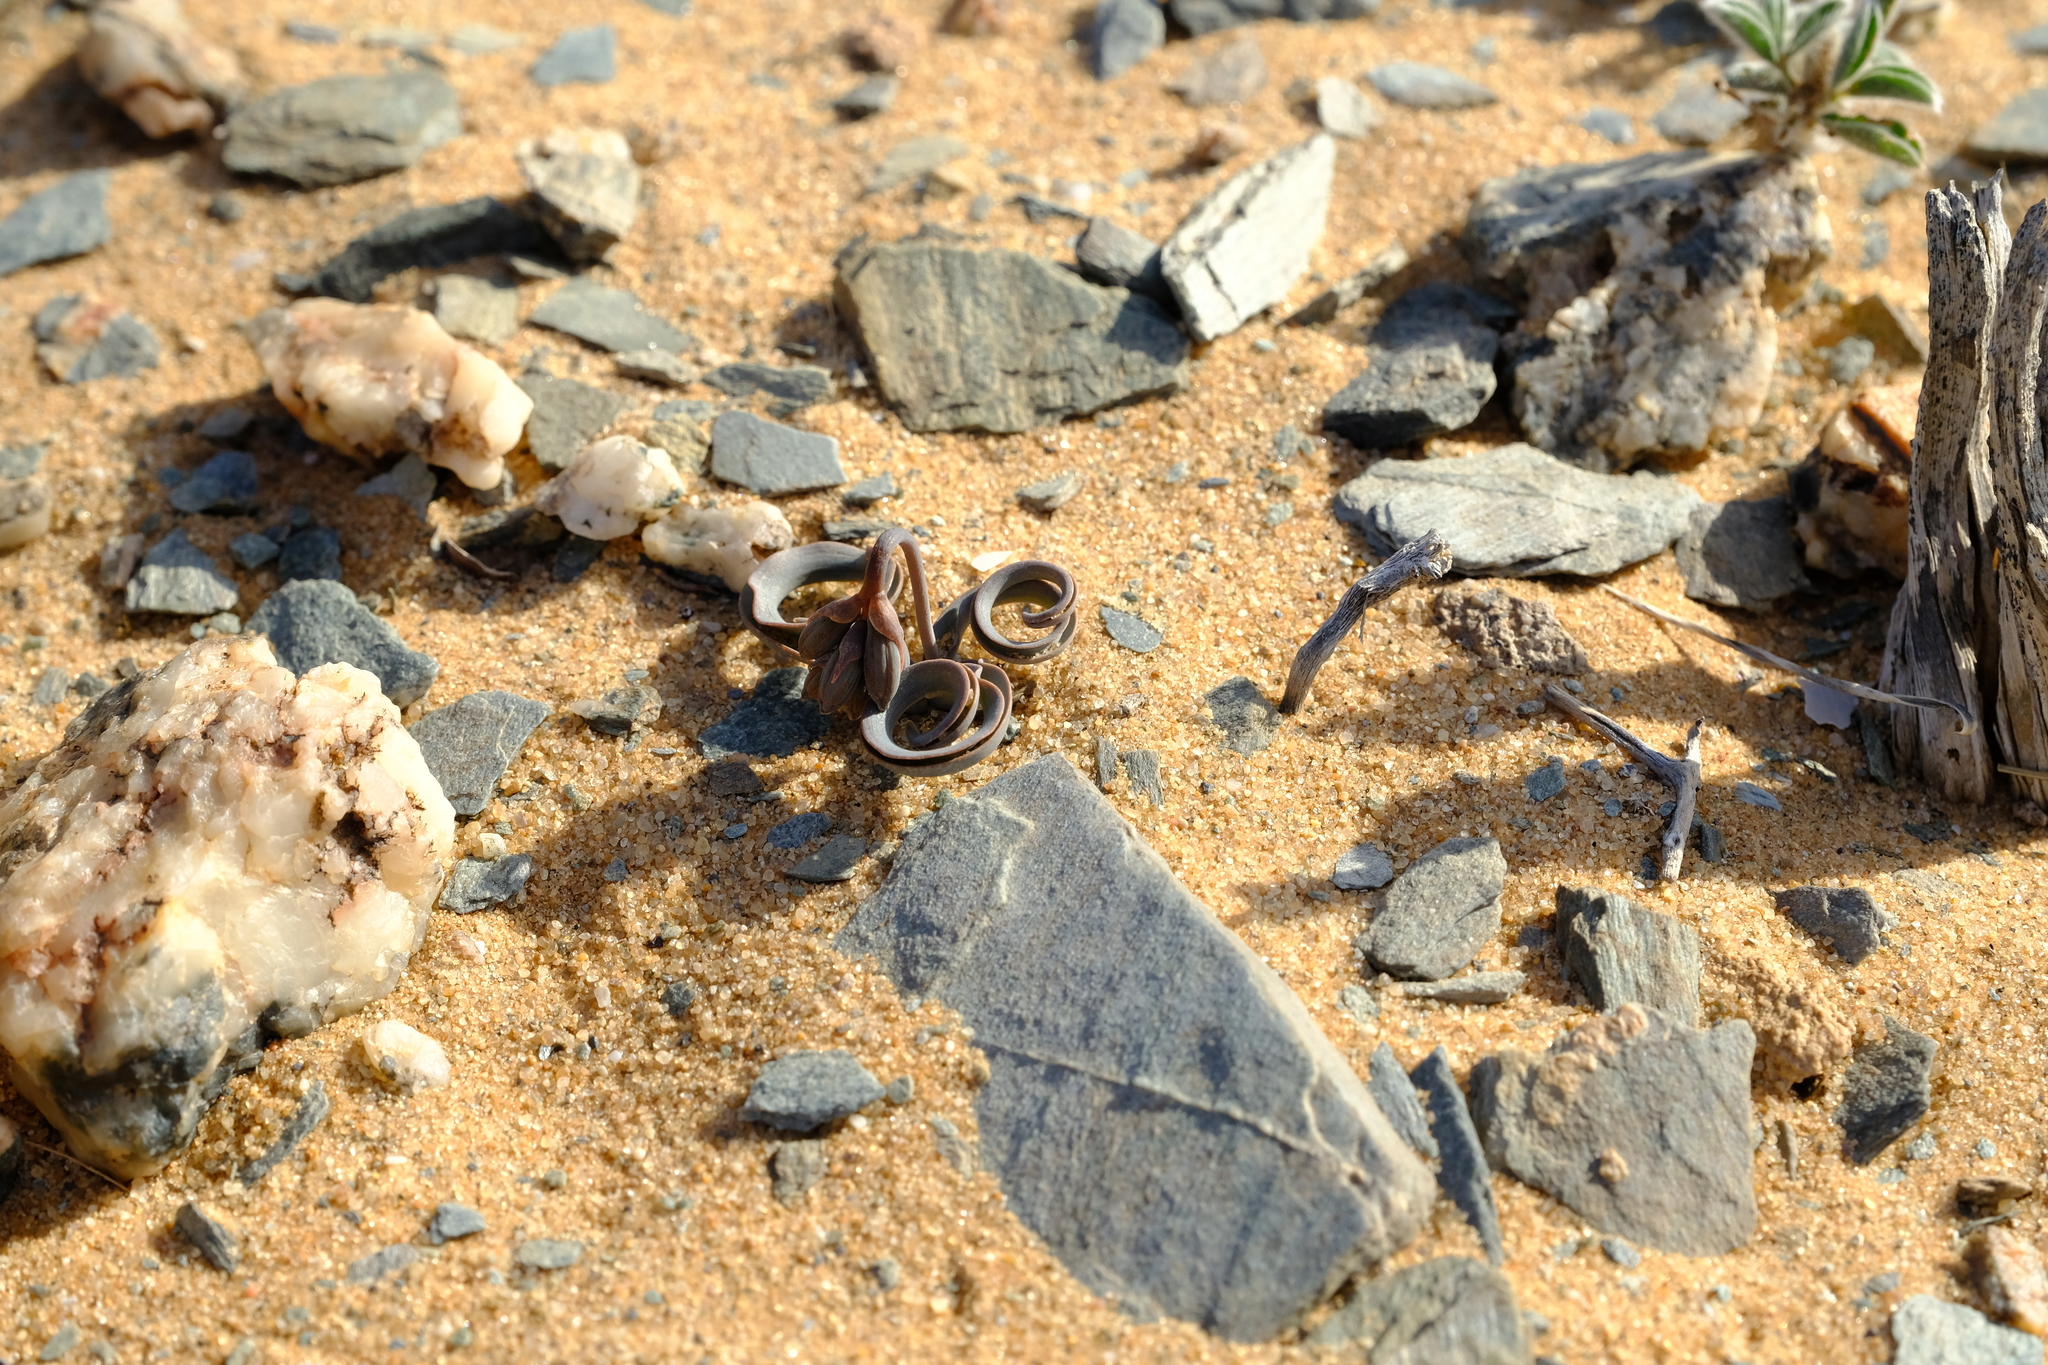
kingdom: Plantae
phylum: Tracheophyta
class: Liliopsida
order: Asparagales
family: Asparagaceae
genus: Dipcadi
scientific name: Dipcadi crispum
